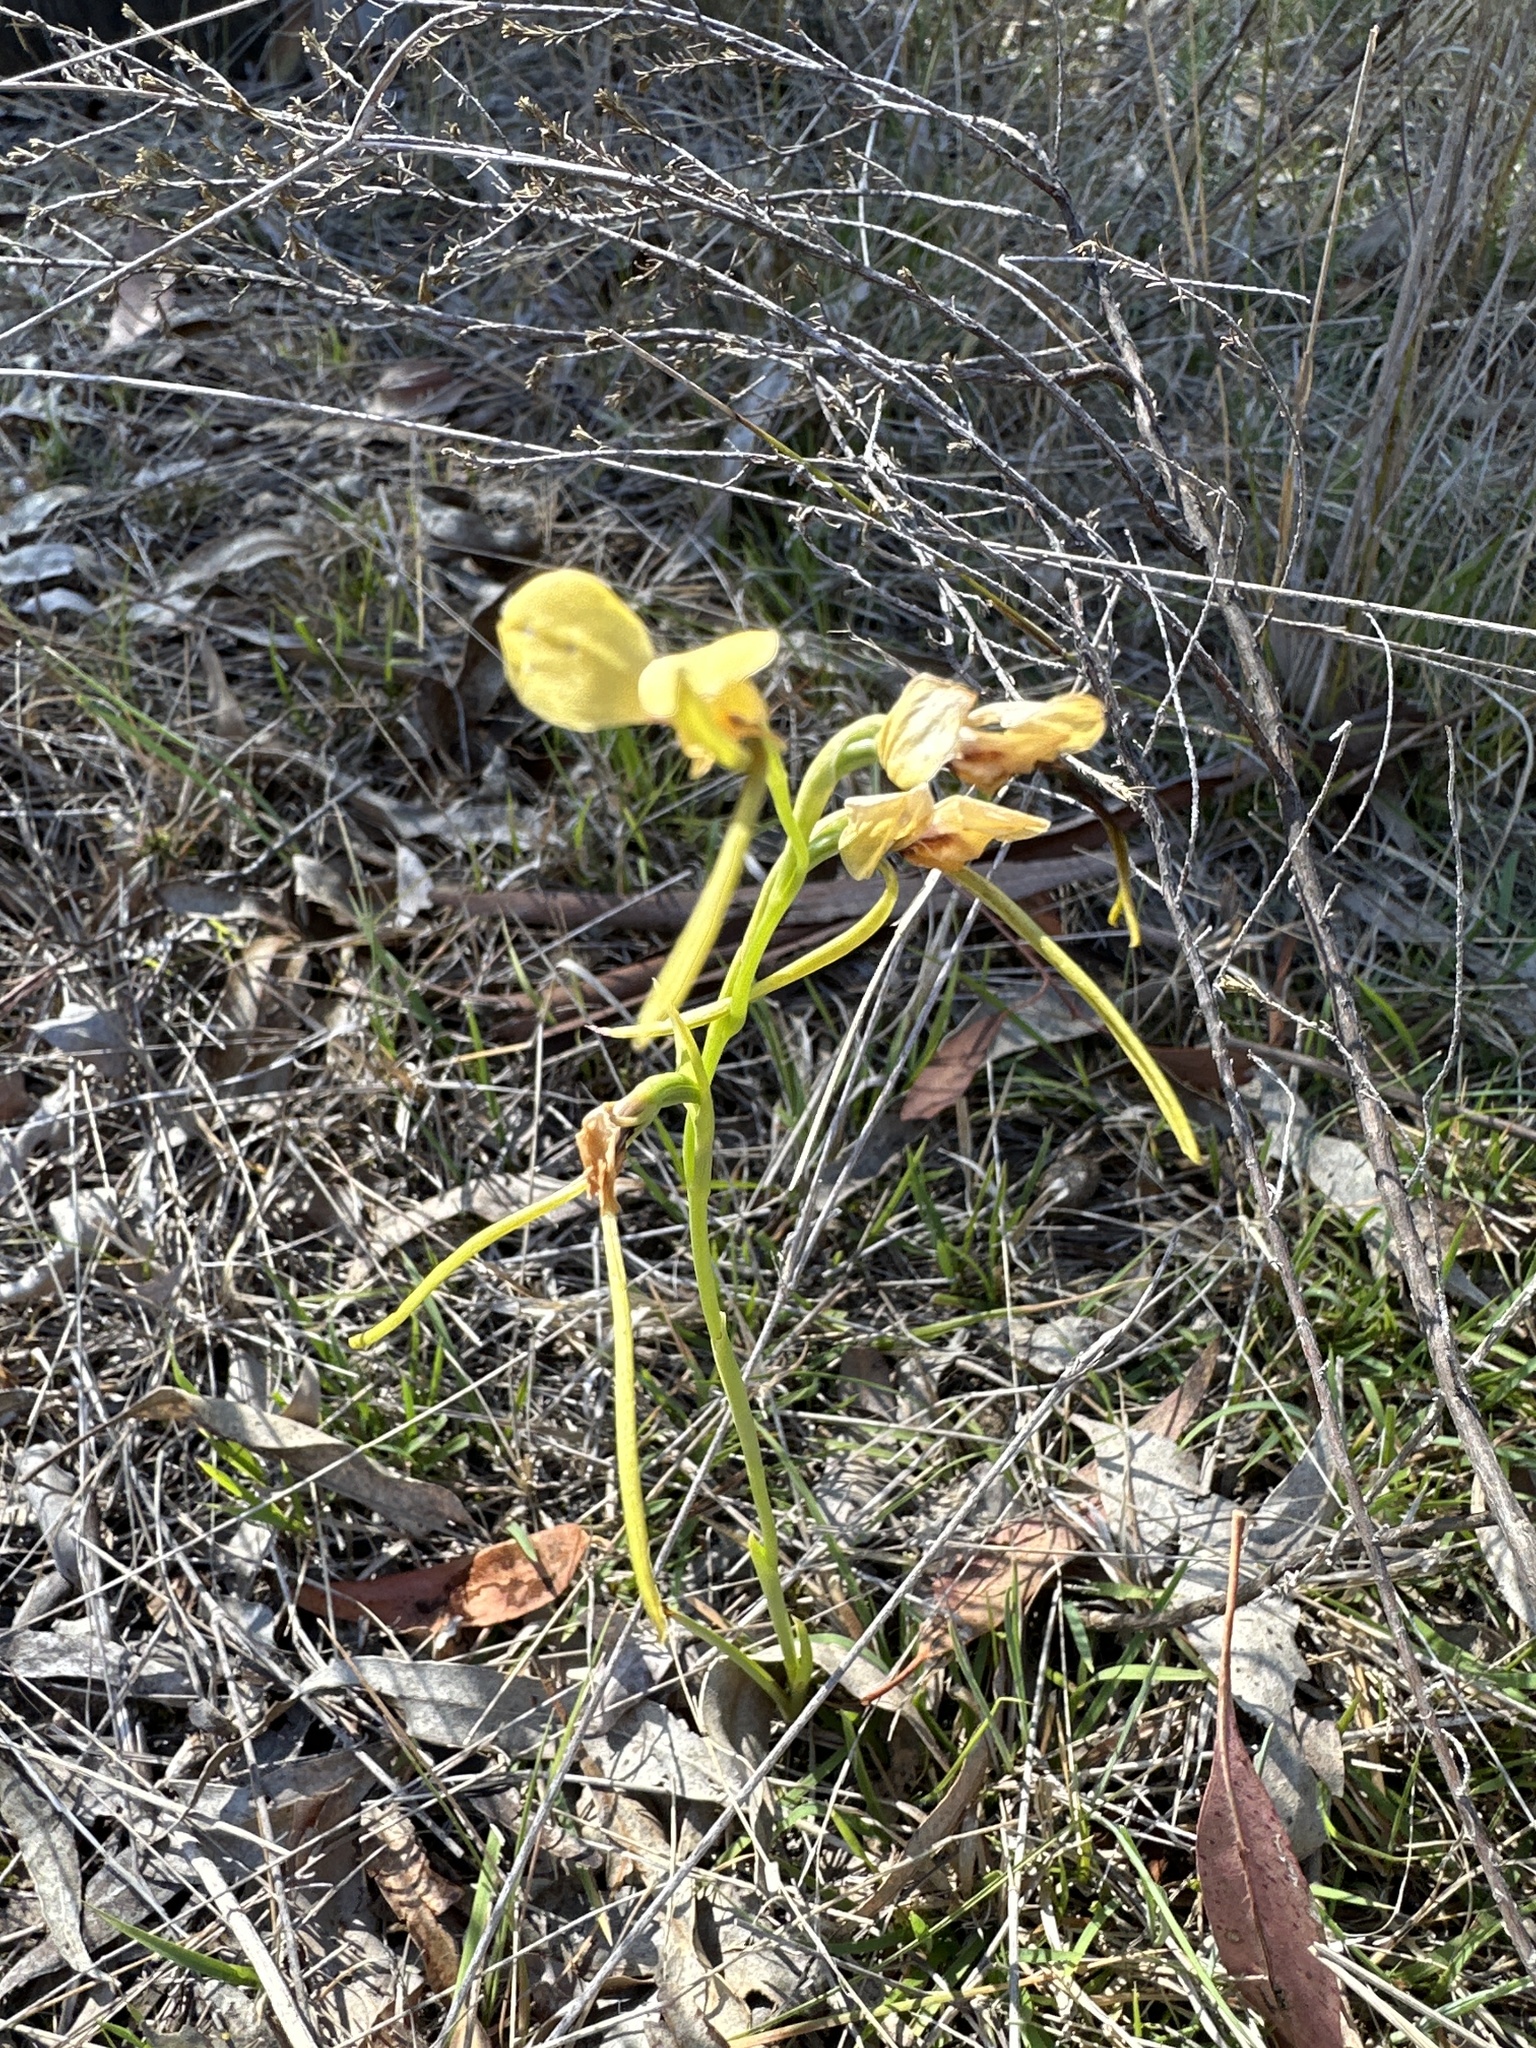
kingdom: Plantae
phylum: Tracheophyta
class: Liliopsida
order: Asparagales
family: Orchidaceae
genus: Diuris
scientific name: Diuris tricolor
